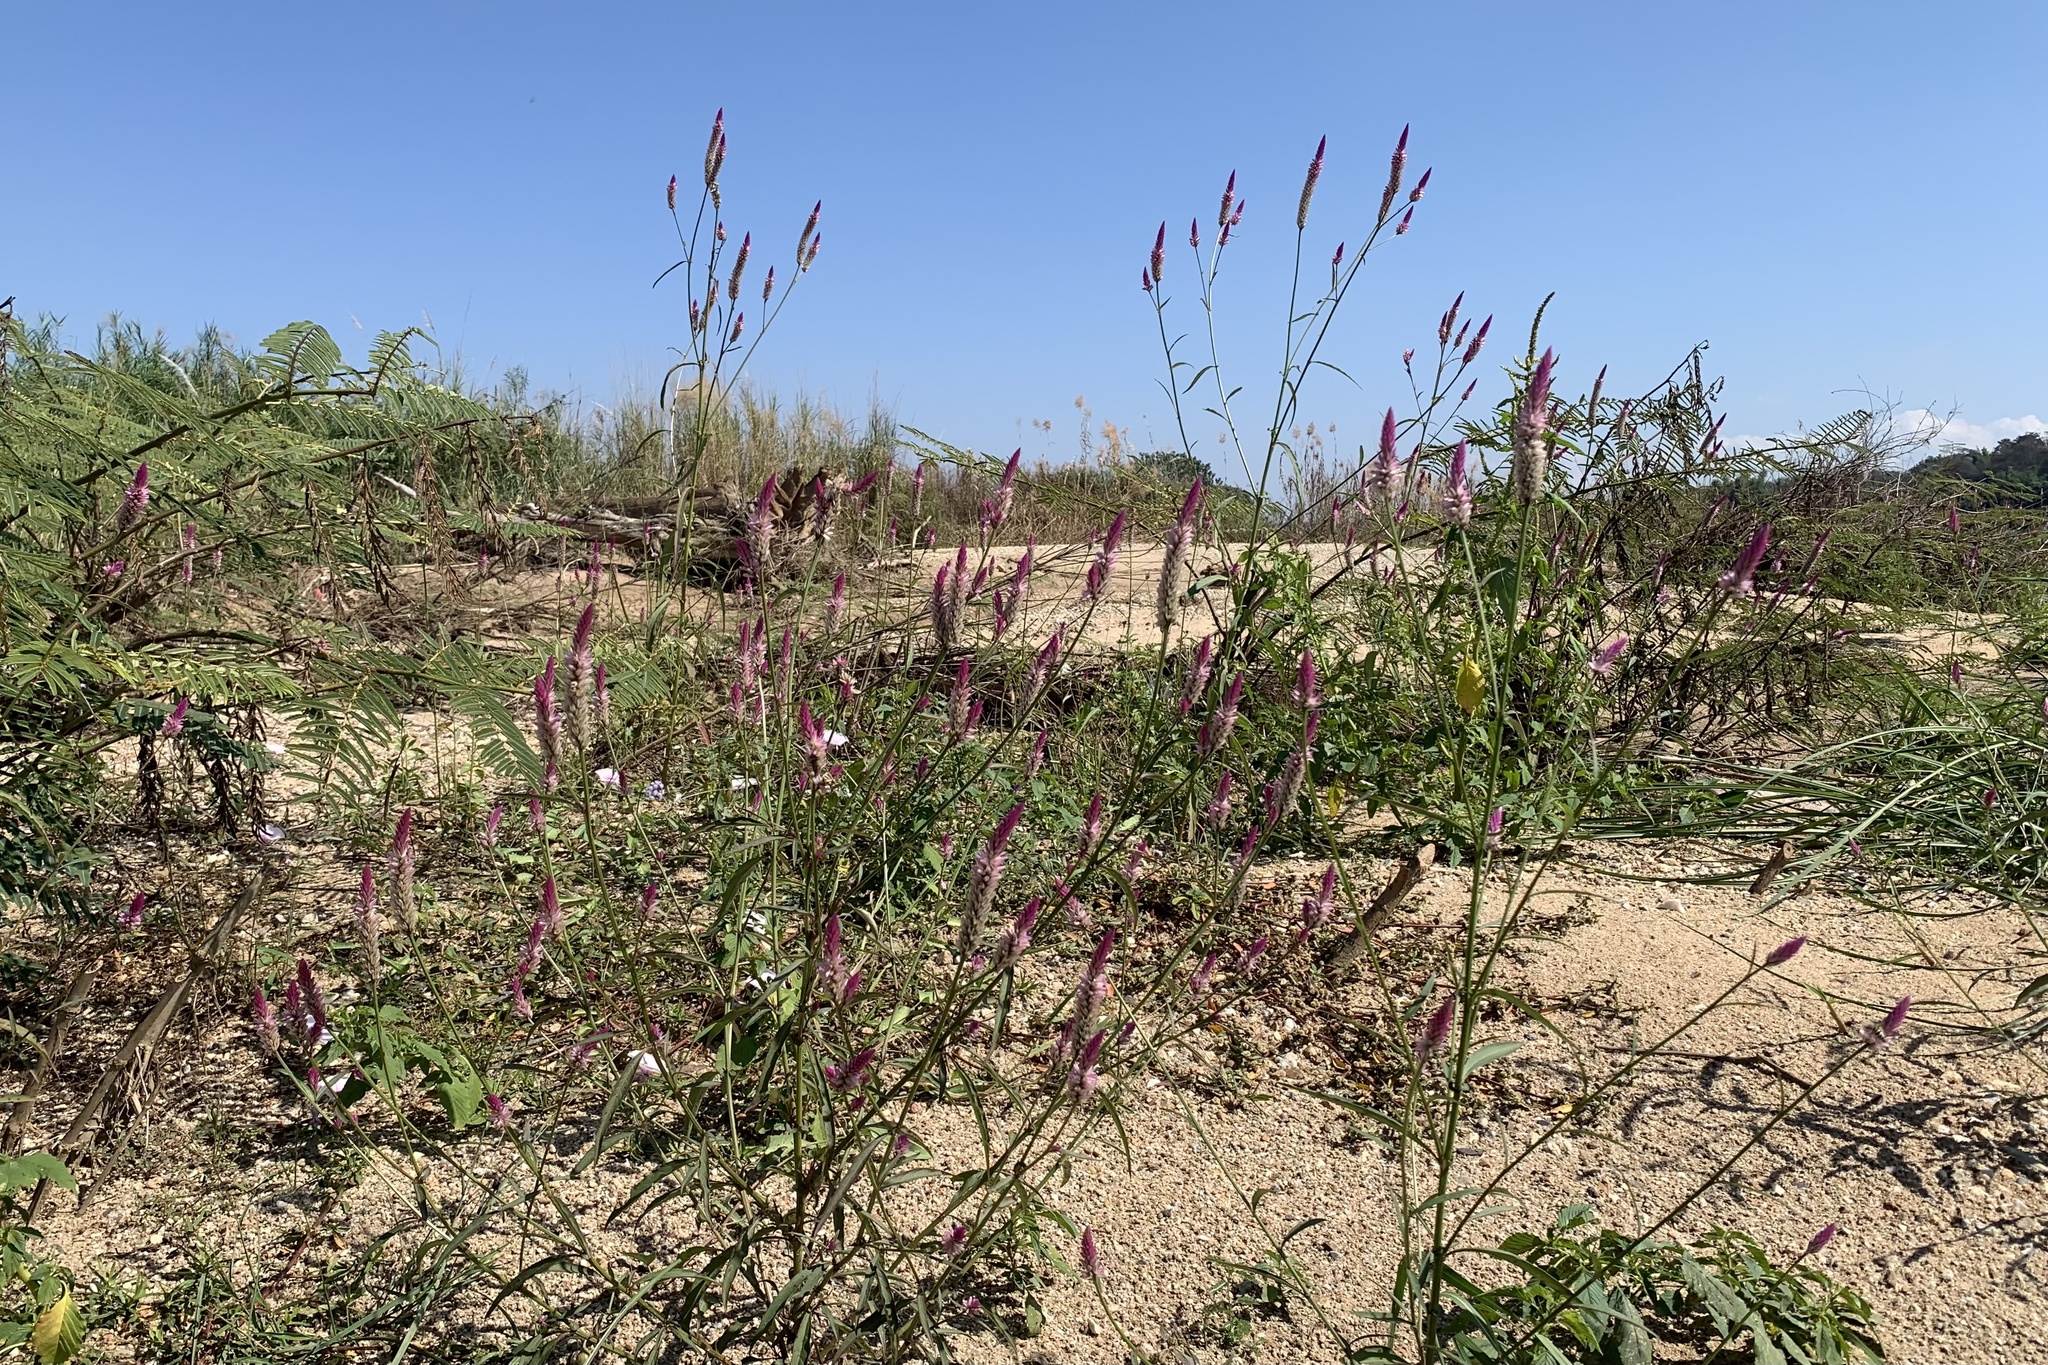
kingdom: Plantae
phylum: Tracheophyta
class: Magnoliopsida
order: Caryophyllales
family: Amaranthaceae
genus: Celosia
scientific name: Celosia argentea
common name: Feather cockscomb
